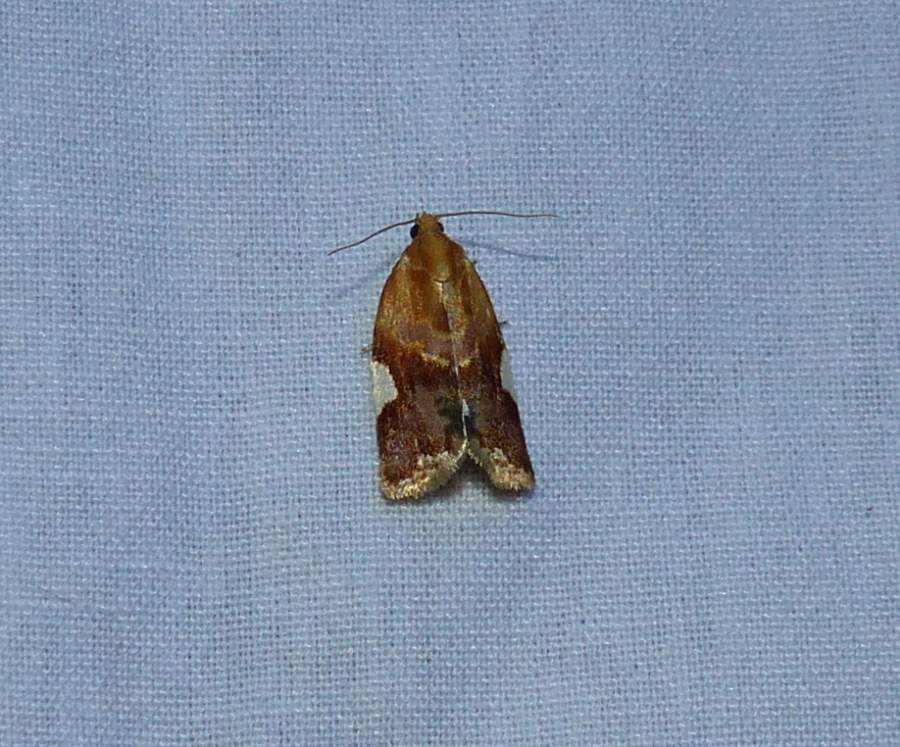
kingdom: Animalia
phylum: Arthropoda
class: Insecta
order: Lepidoptera
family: Tortricidae
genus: Clepsis
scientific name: Clepsis persicana
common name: White triangle tortrix
